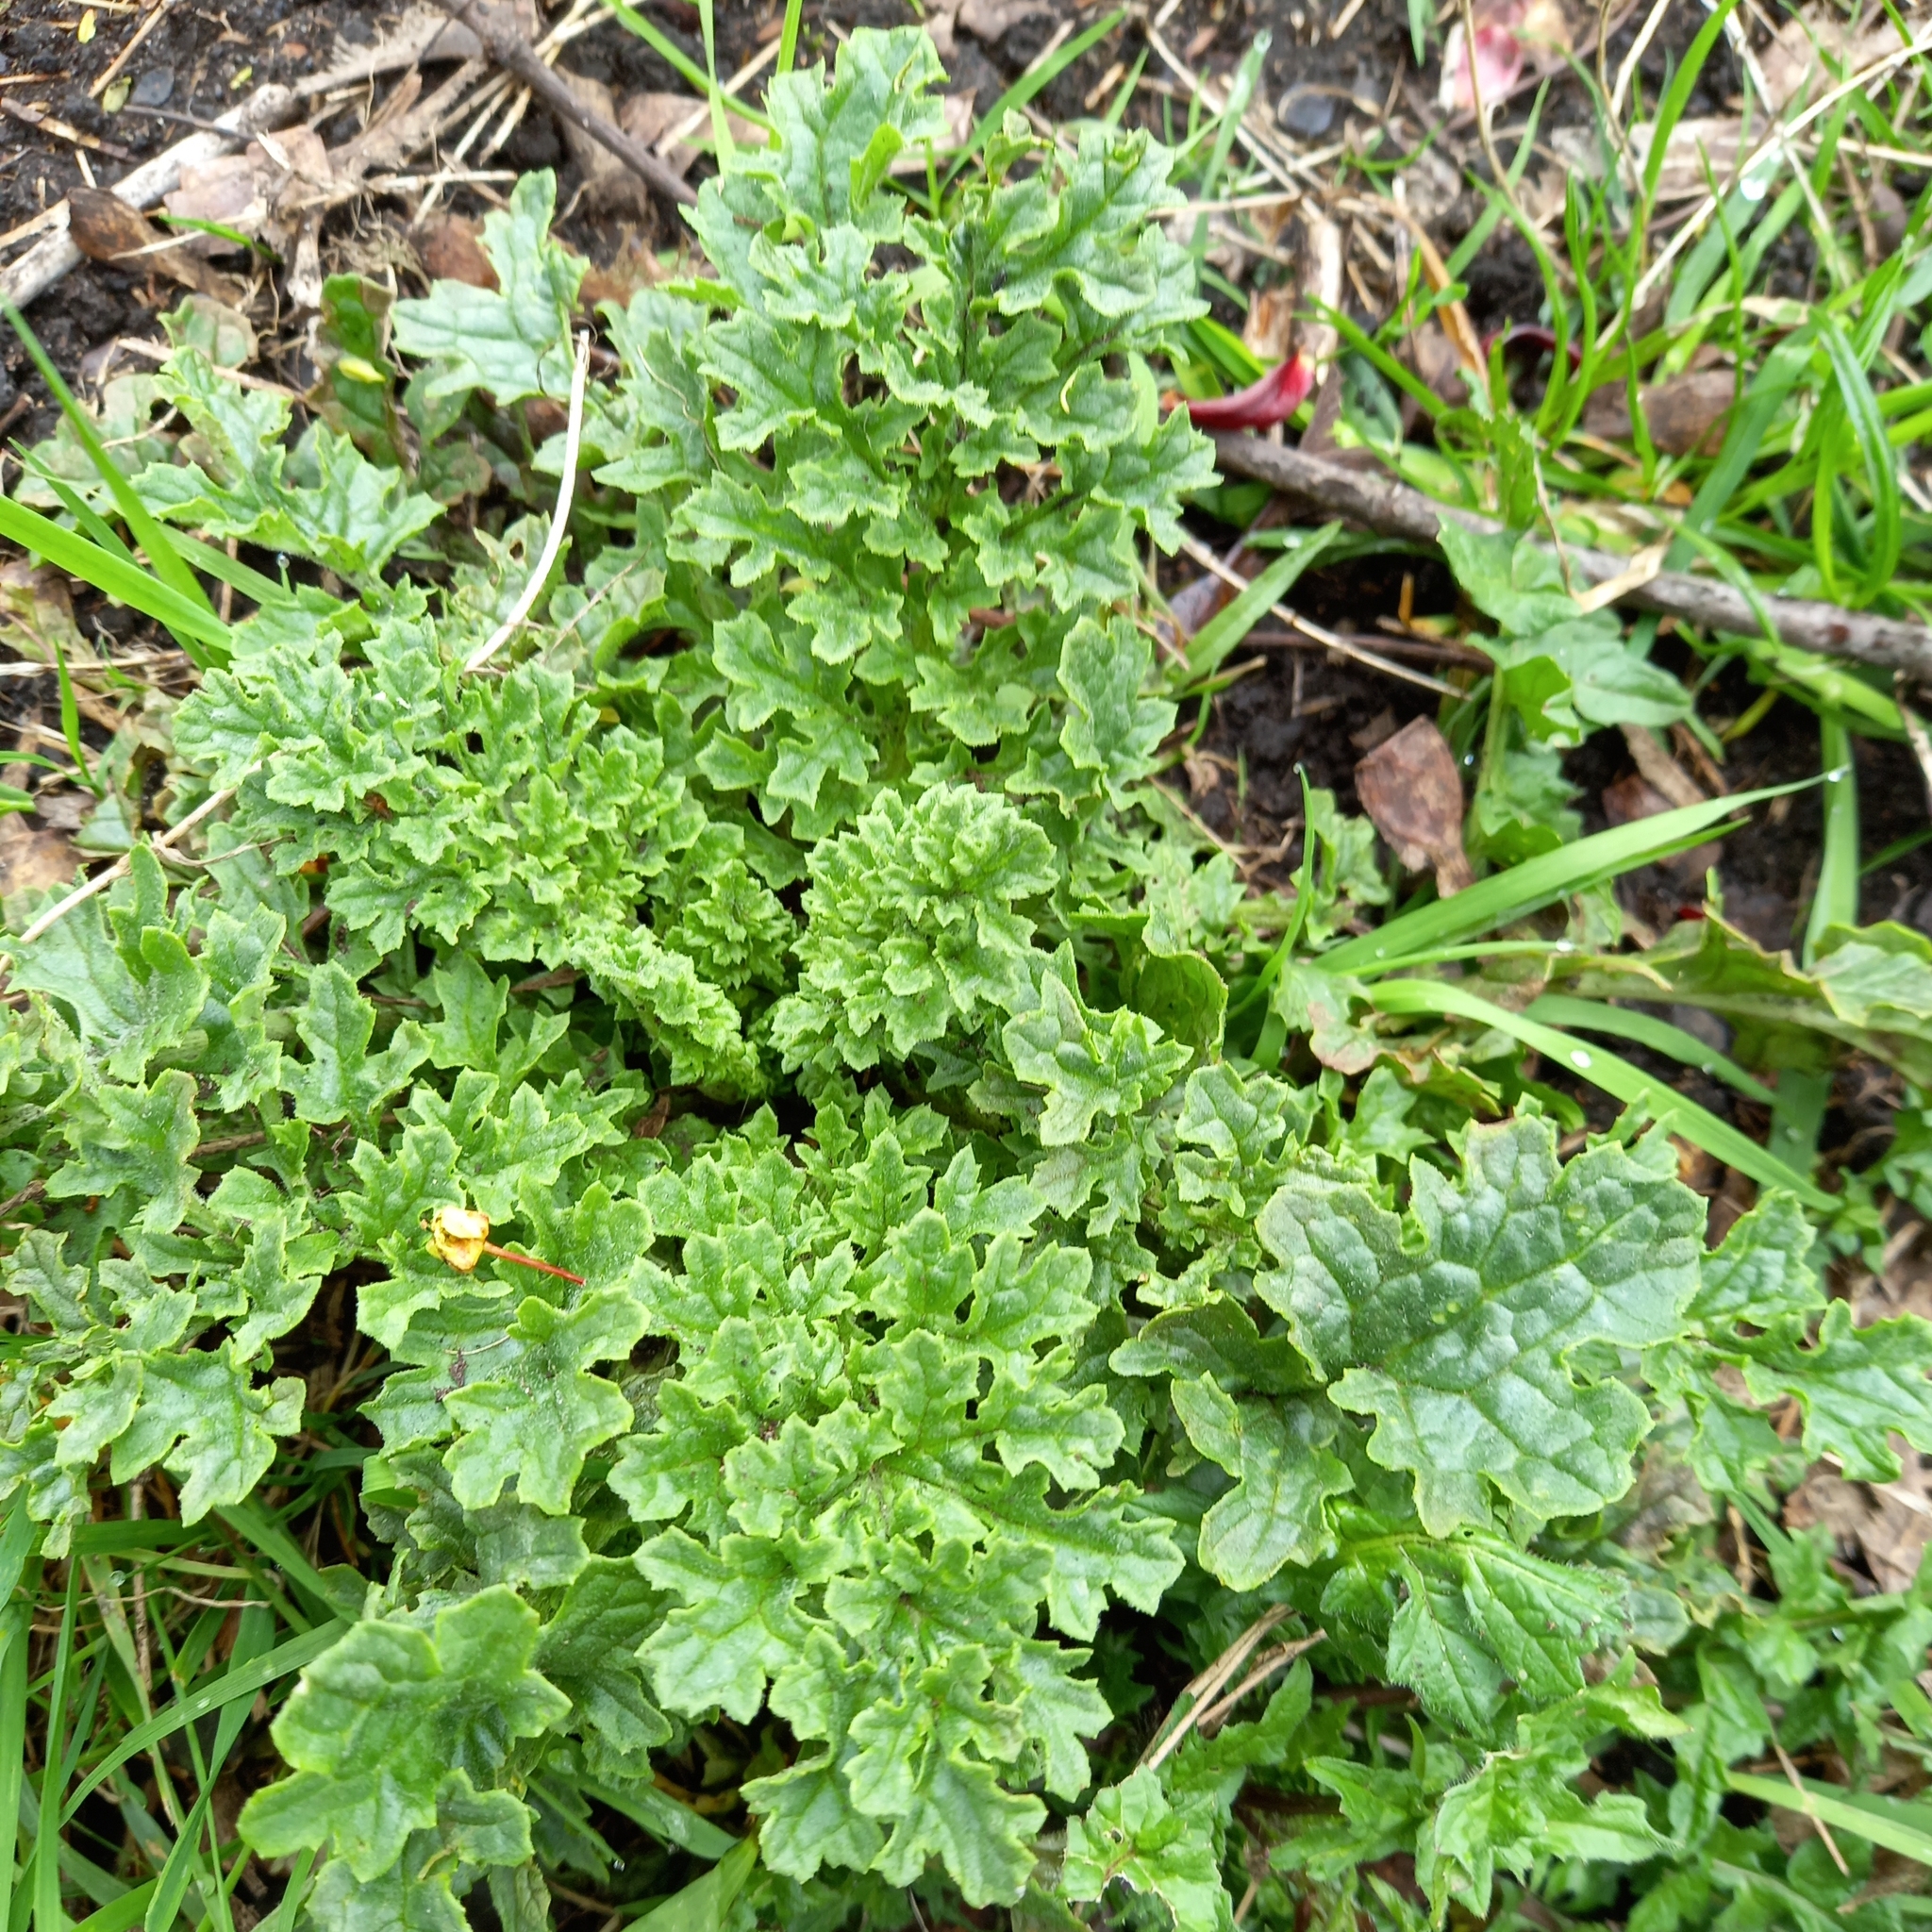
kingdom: Plantae
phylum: Tracheophyta
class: Magnoliopsida
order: Asterales
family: Asteraceae
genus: Jacobaea
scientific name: Jacobaea vulgaris
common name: Stinking willie
